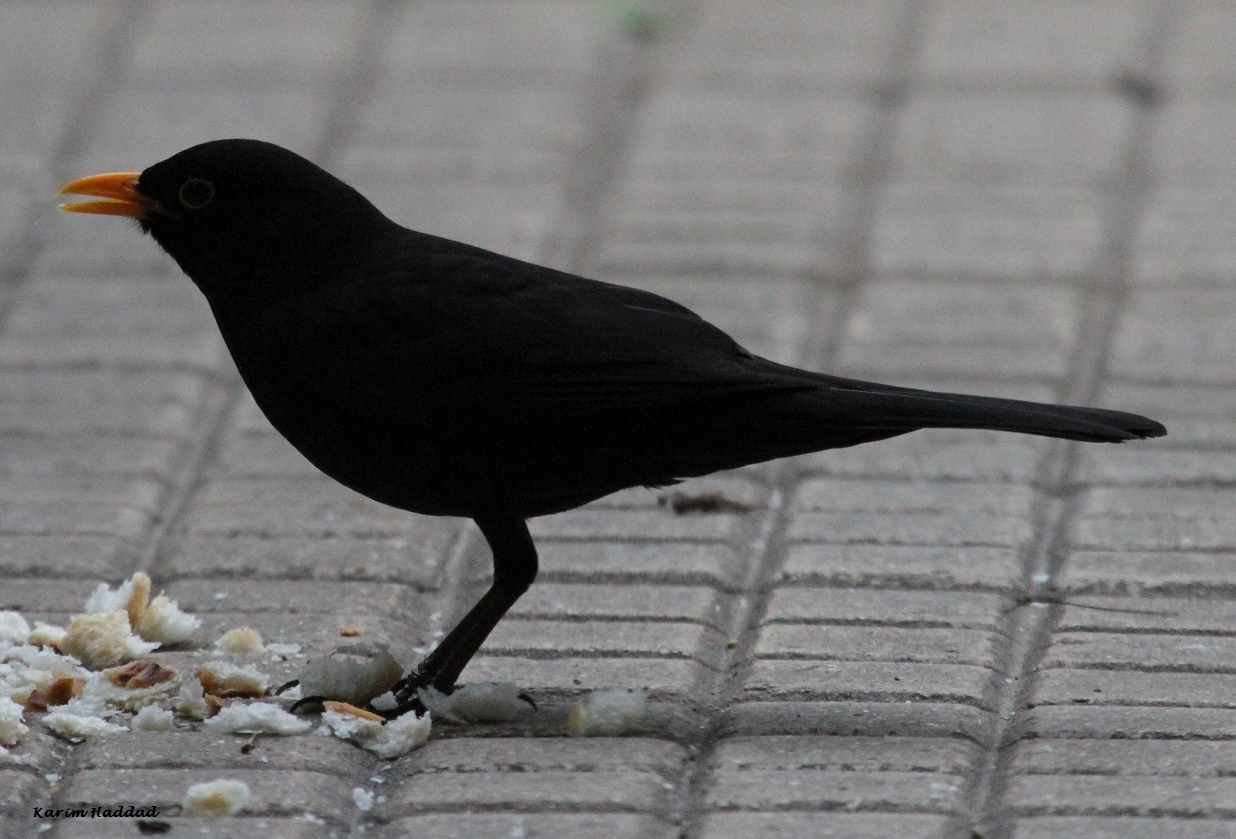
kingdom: Animalia
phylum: Chordata
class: Aves
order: Passeriformes
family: Turdidae
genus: Turdus
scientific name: Turdus merula
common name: Common blackbird
